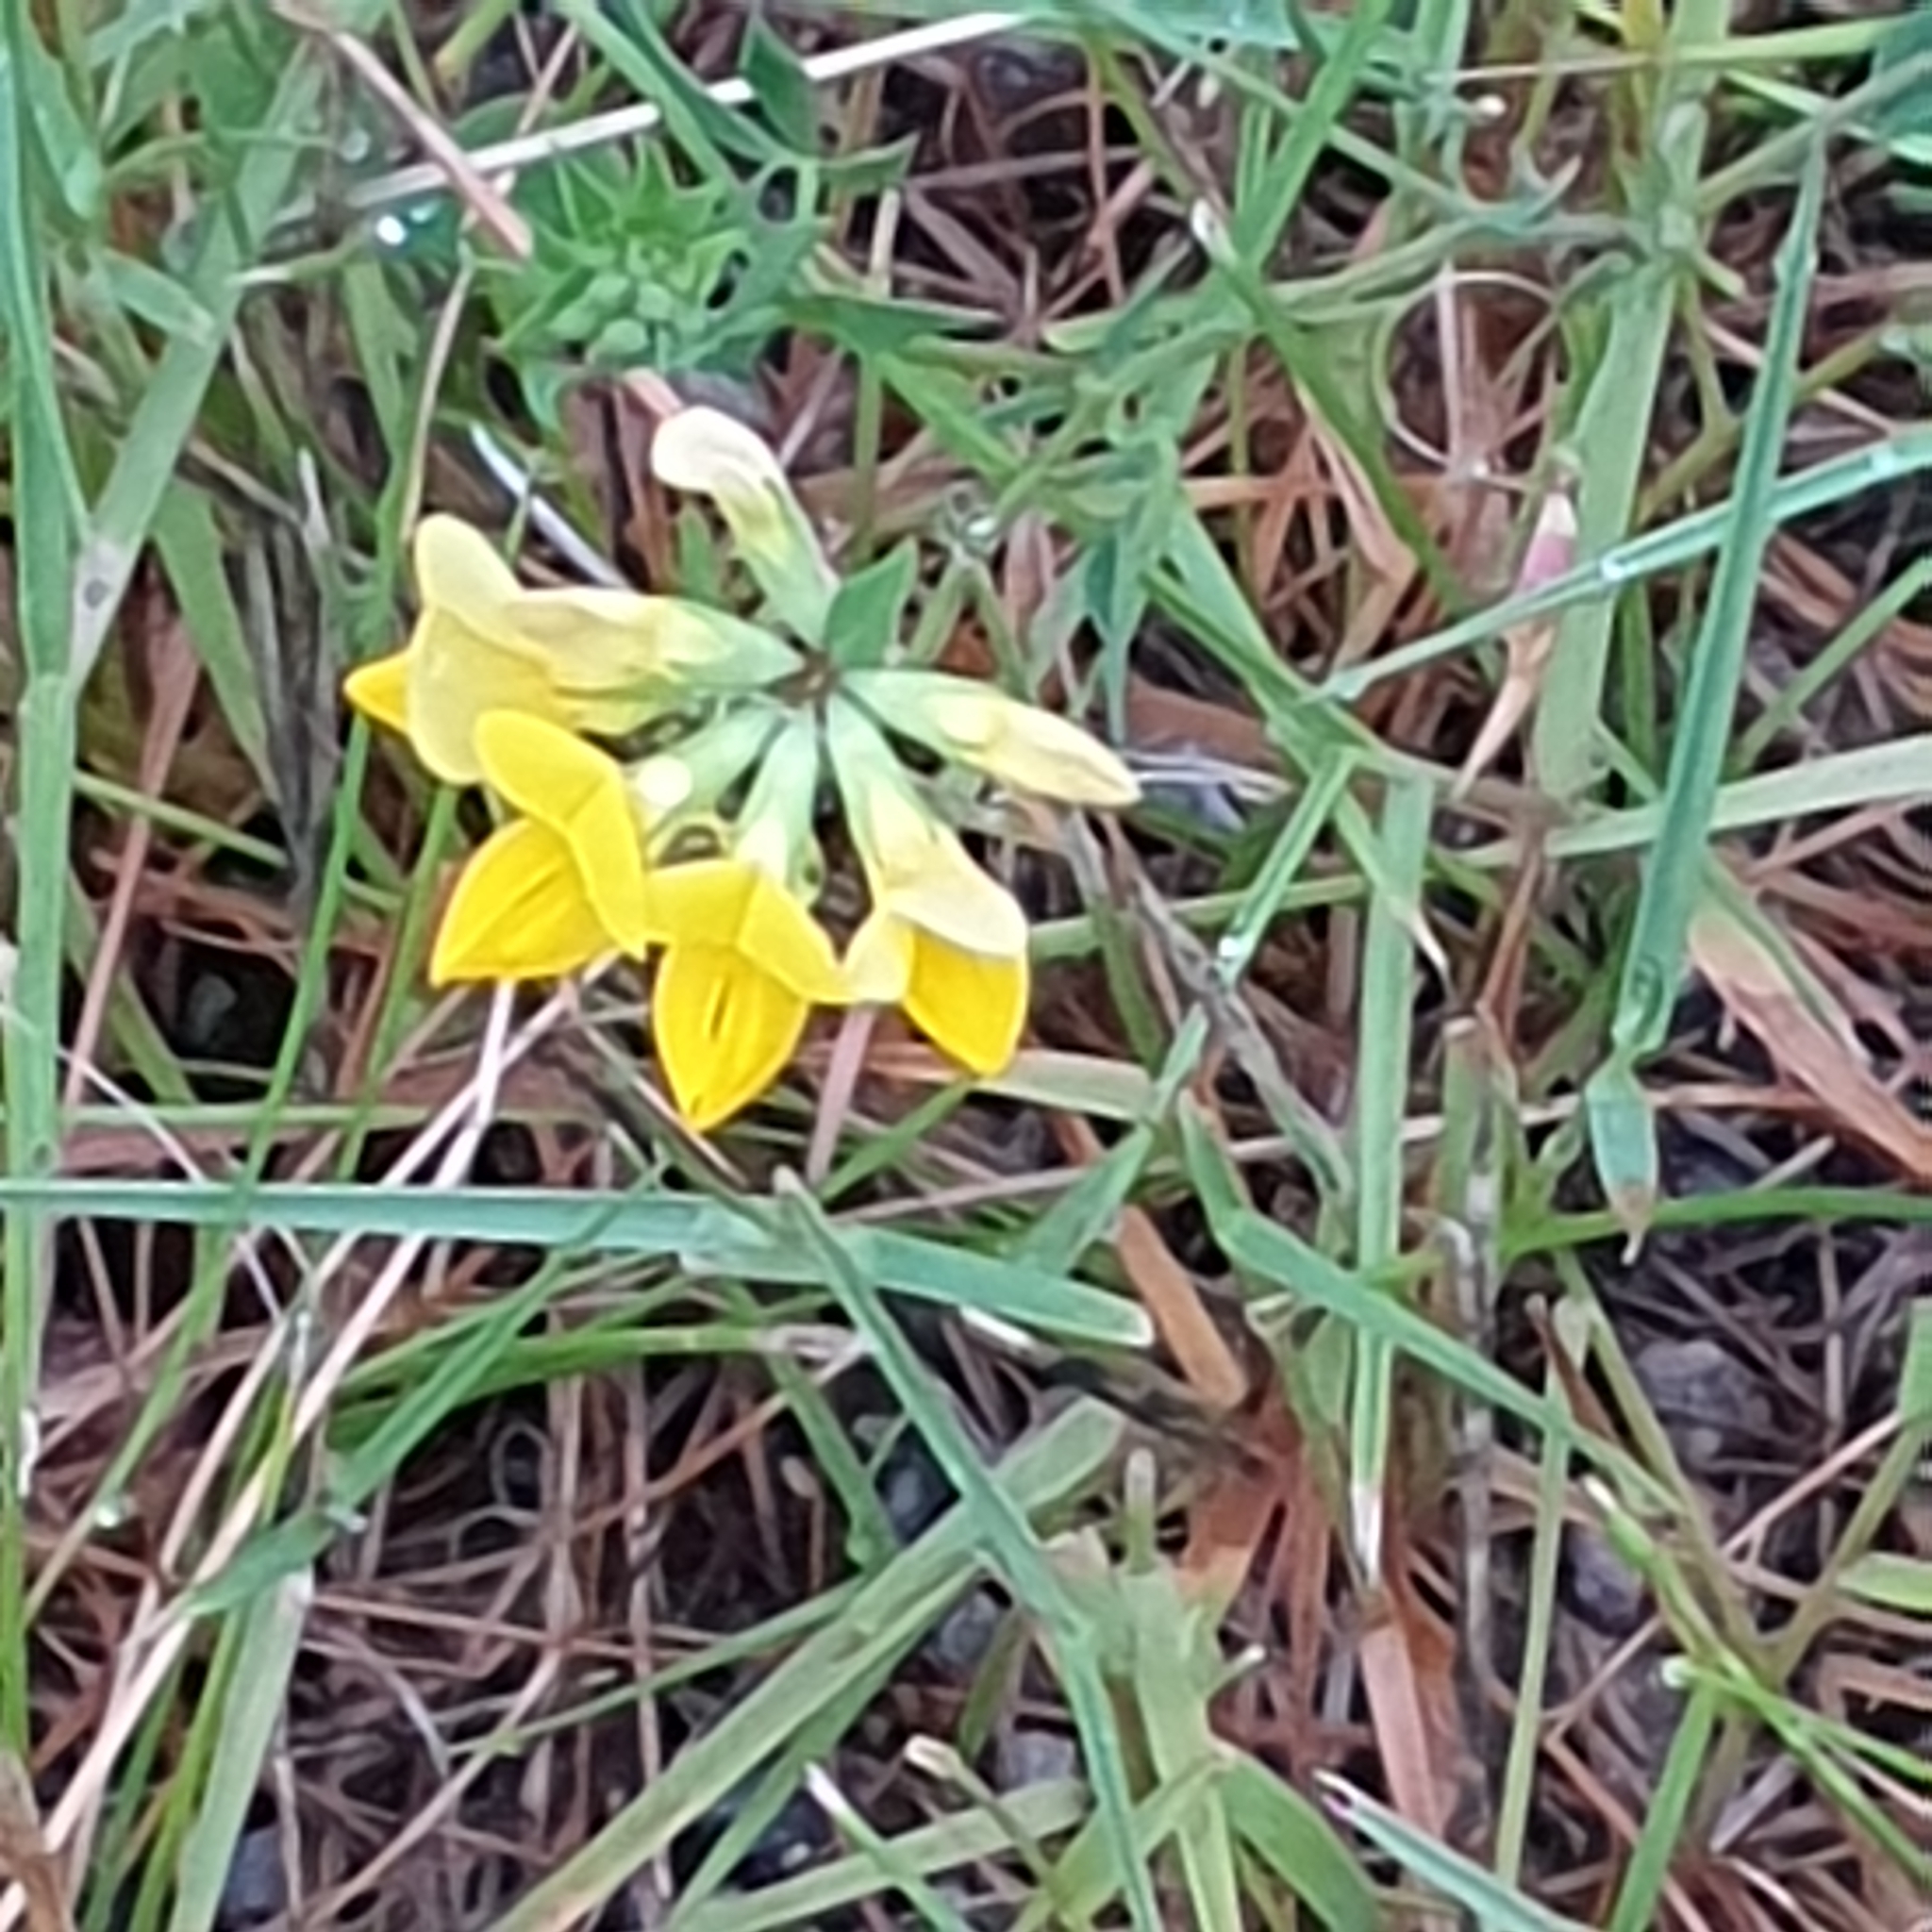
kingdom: Plantae
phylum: Tracheophyta
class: Magnoliopsida
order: Fabales
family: Fabaceae
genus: Lotus
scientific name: Lotus corniculatus
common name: Common bird's-foot-trefoil
